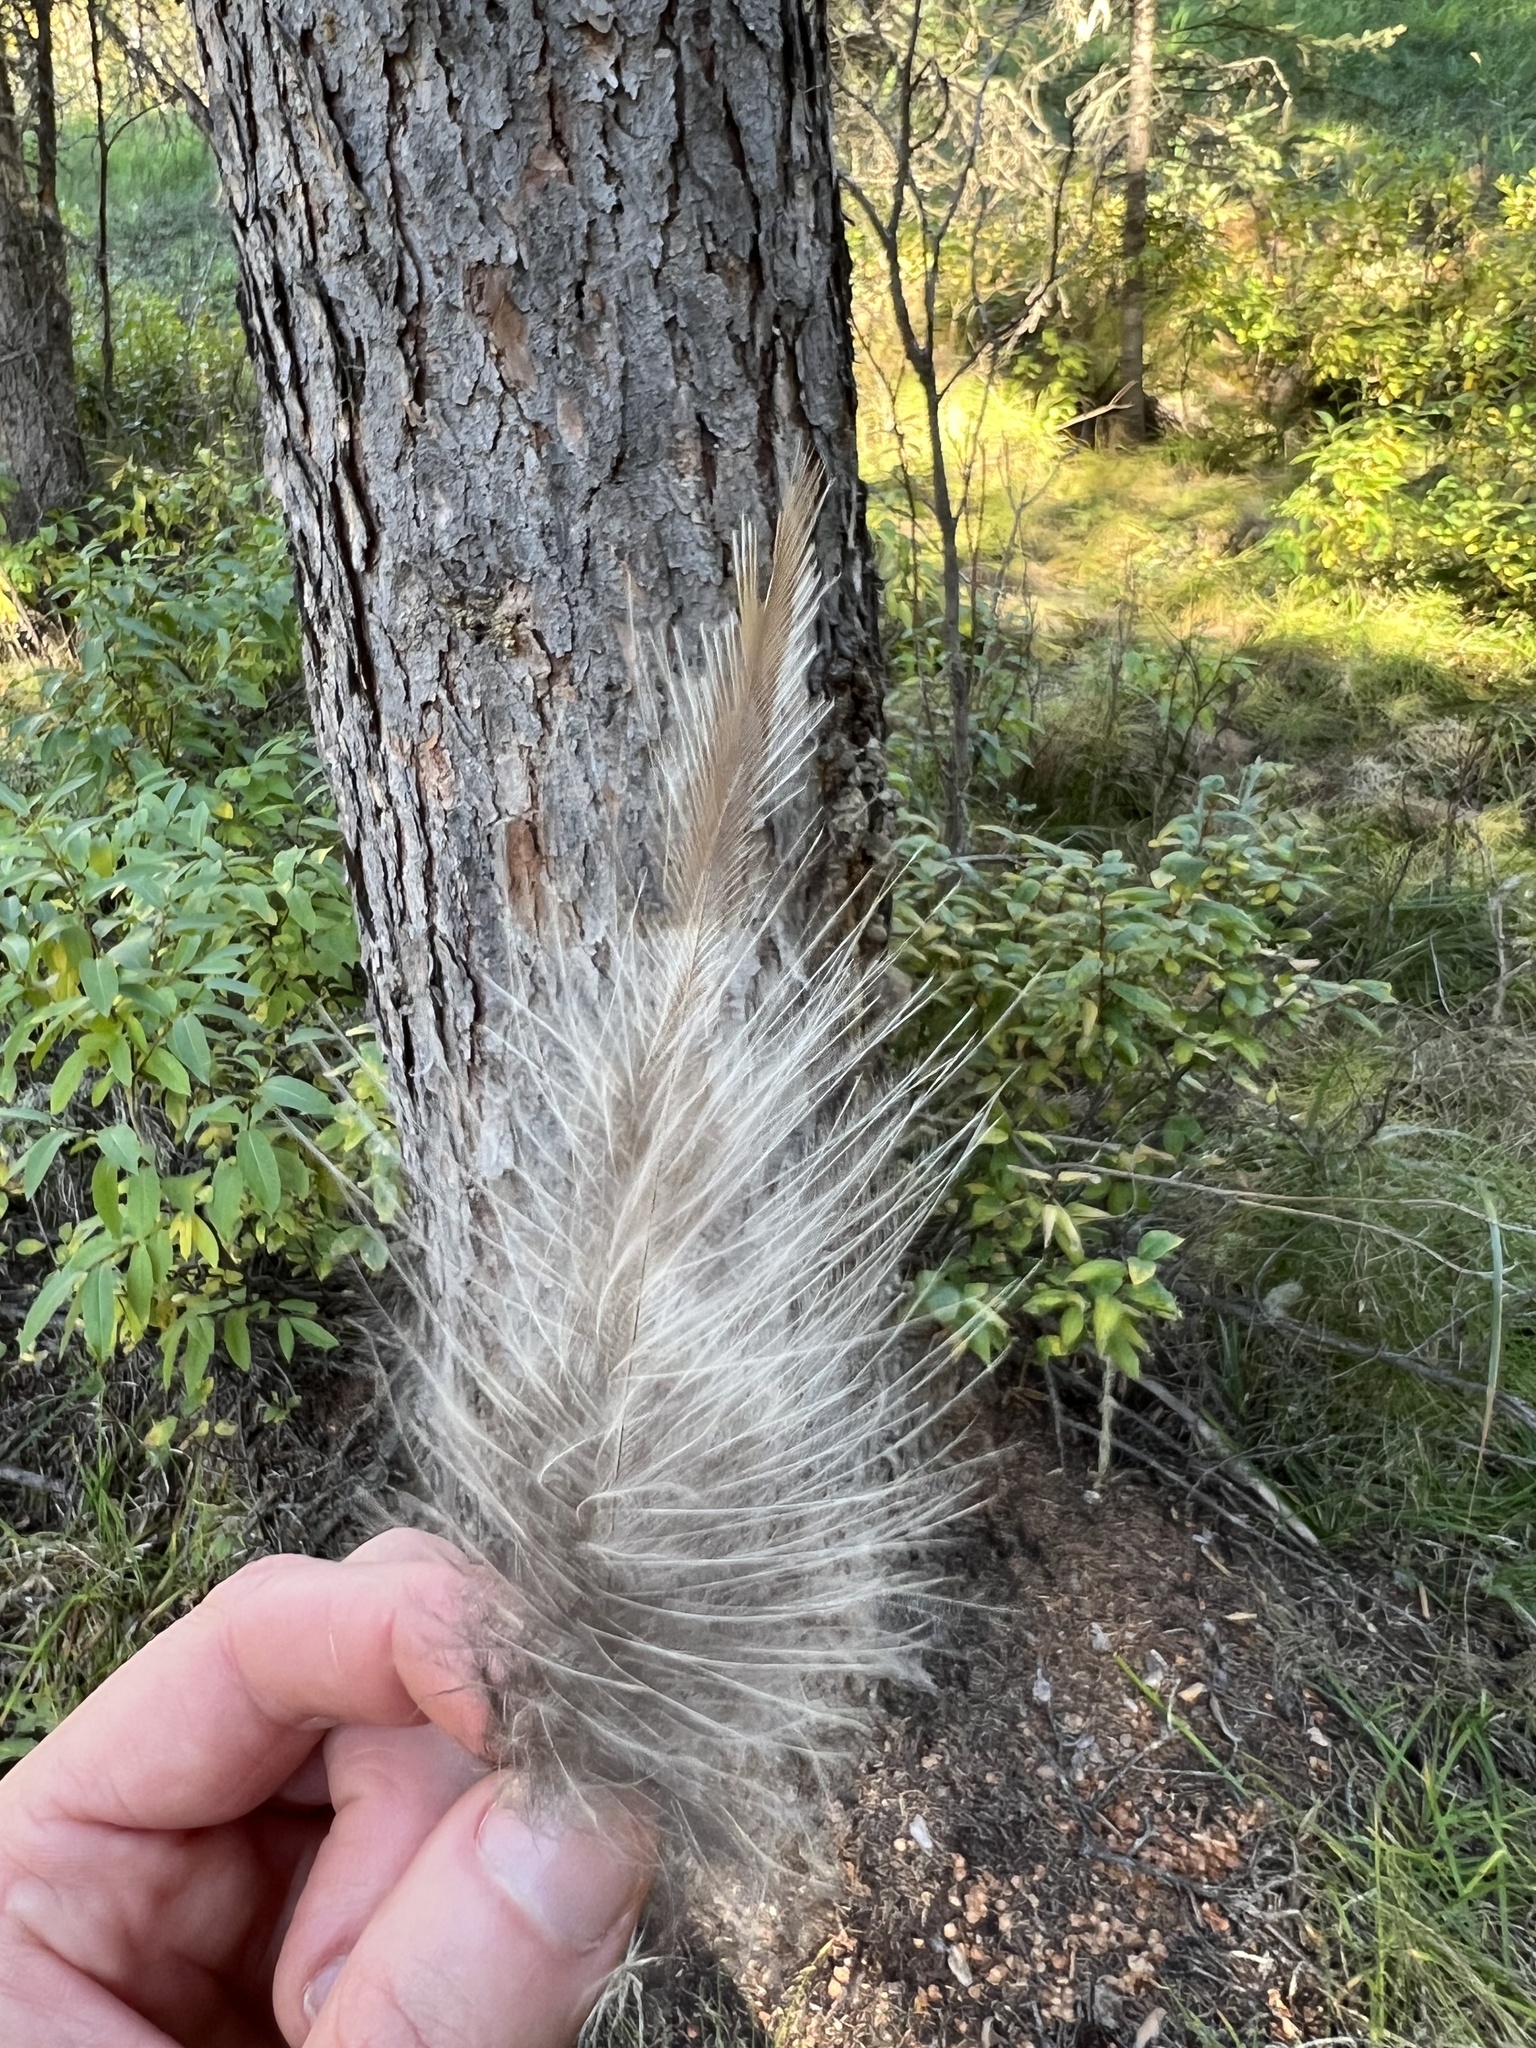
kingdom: Animalia
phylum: Chordata
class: Aves
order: Strigiformes
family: Strigidae
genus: Strix
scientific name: Strix varia
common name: Barred owl
